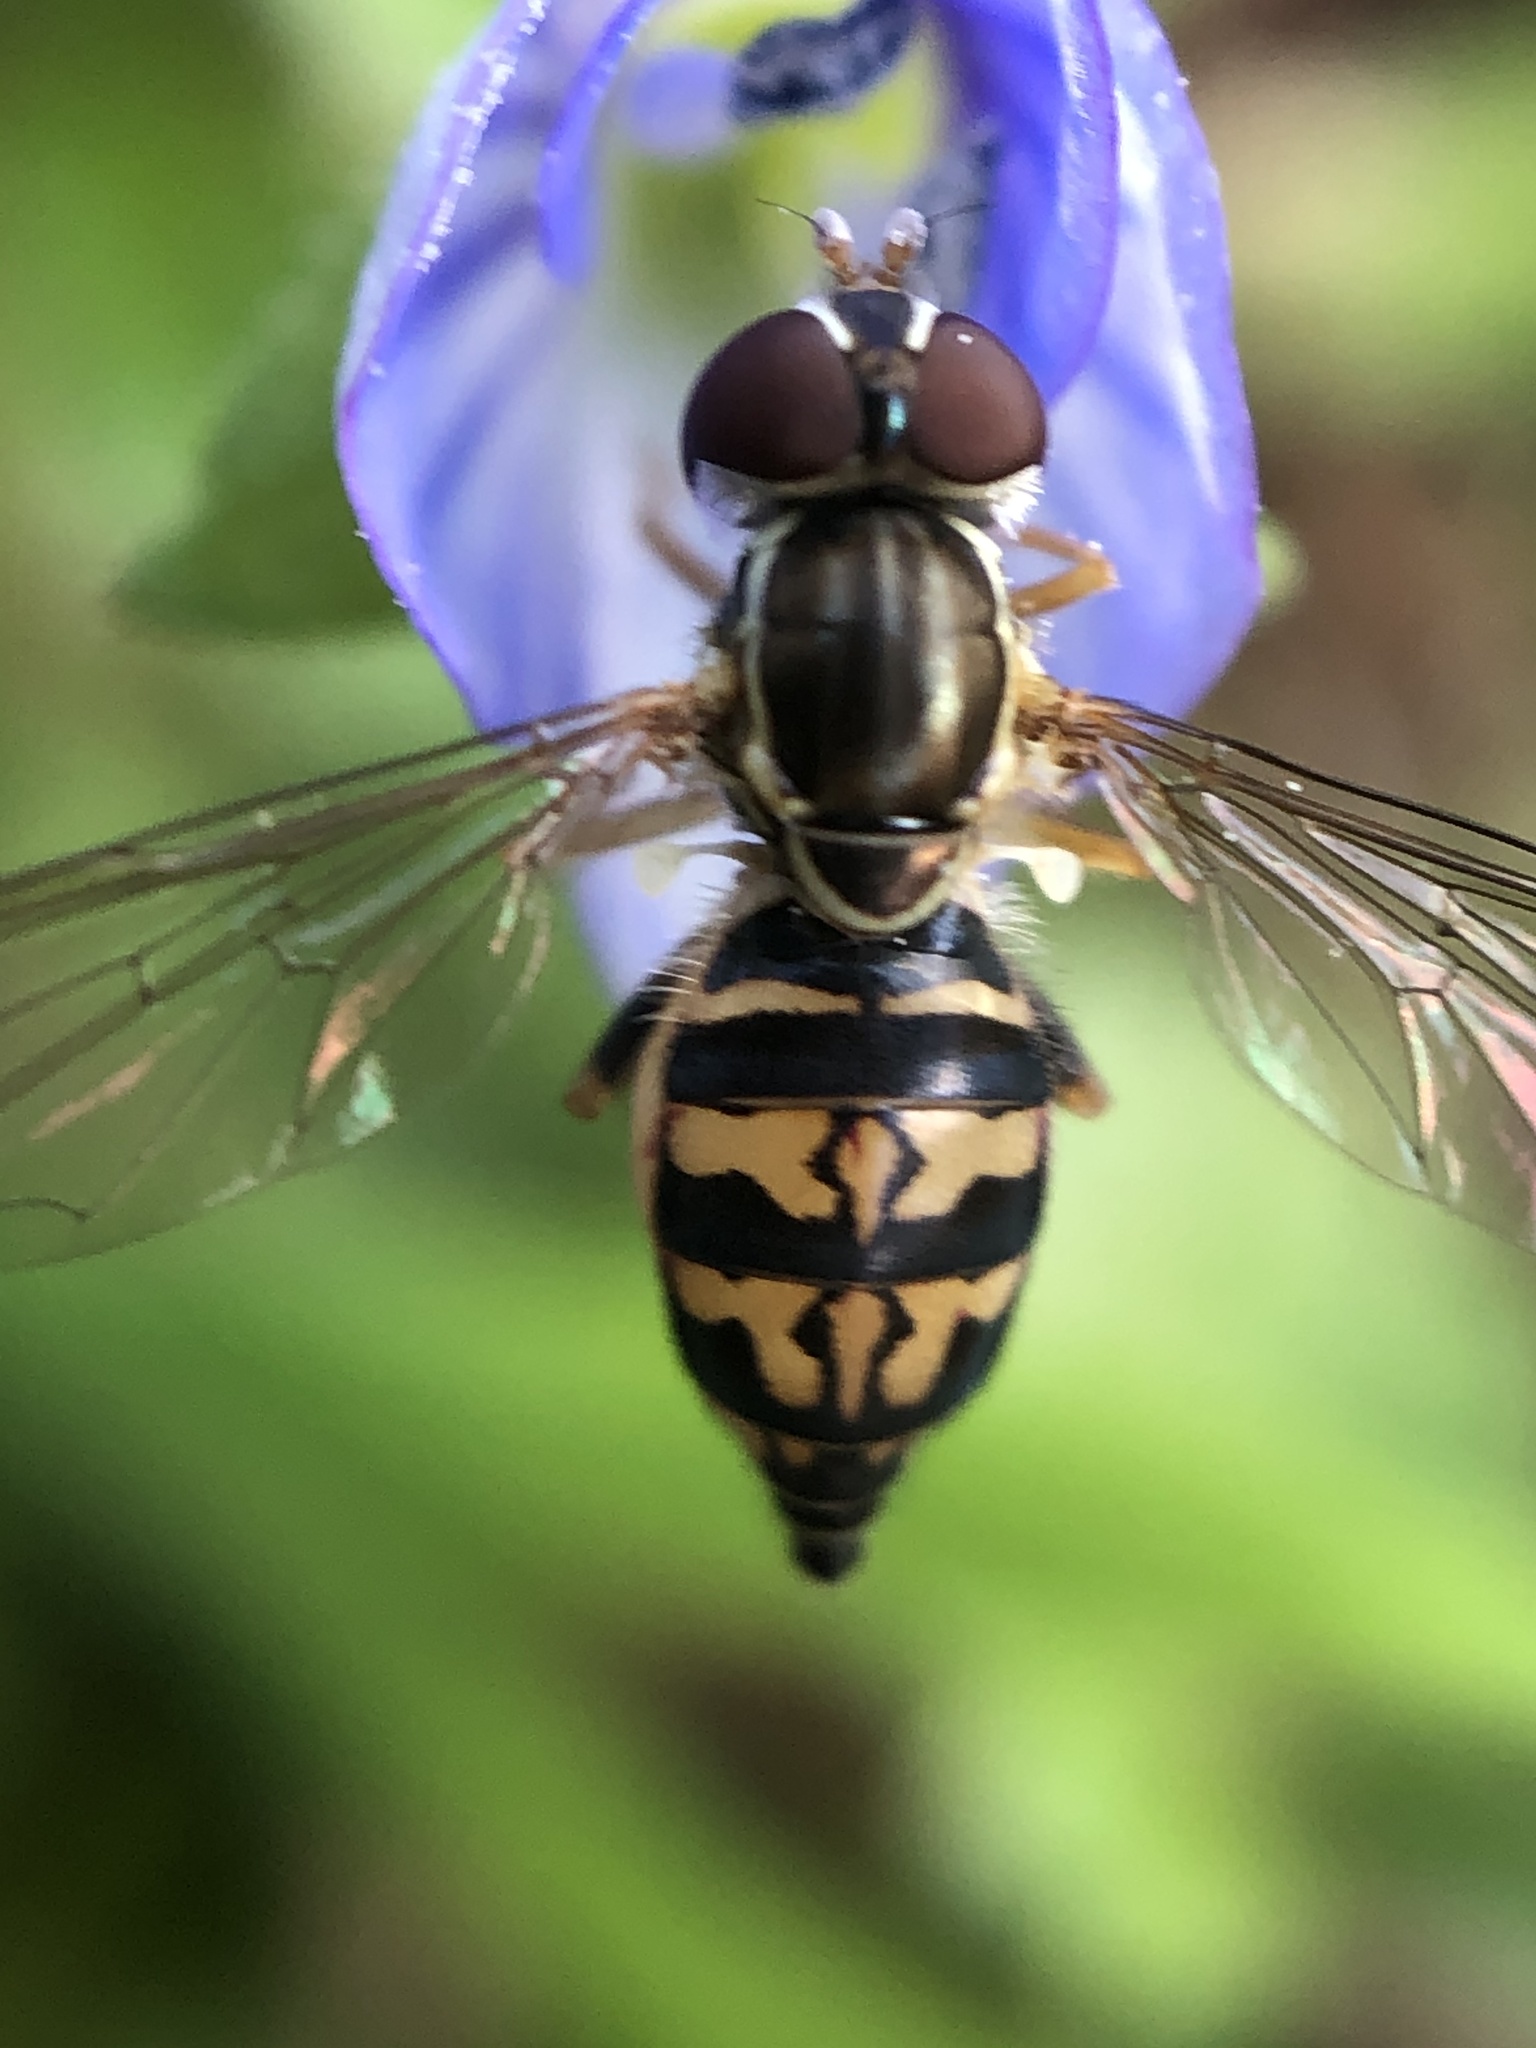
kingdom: Animalia
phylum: Arthropoda
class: Insecta
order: Diptera
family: Syrphidae
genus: Toxomerus
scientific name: Toxomerus geminatus
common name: Eastern calligrapher
